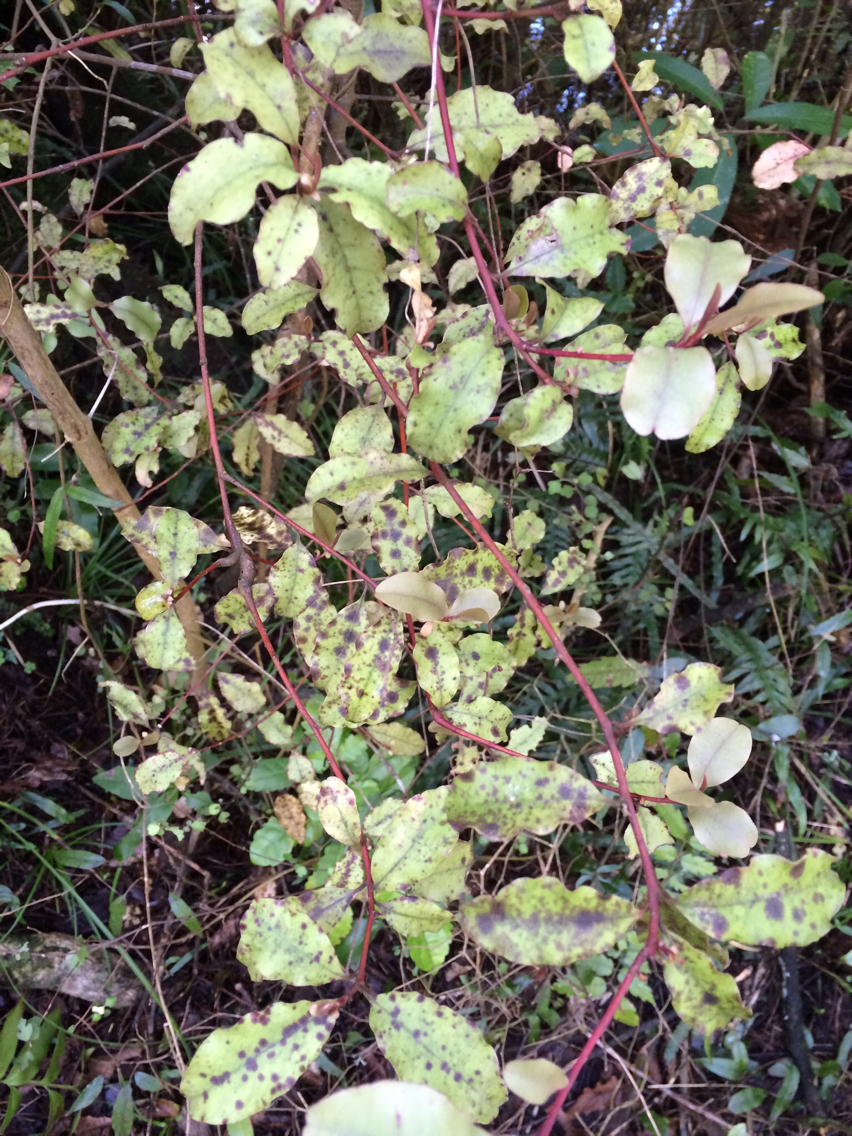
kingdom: Plantae
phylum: Tracheophyta
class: Magnoliopsida
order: Ericales
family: Primulaceae
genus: Myrsine
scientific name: Myrsine australis
